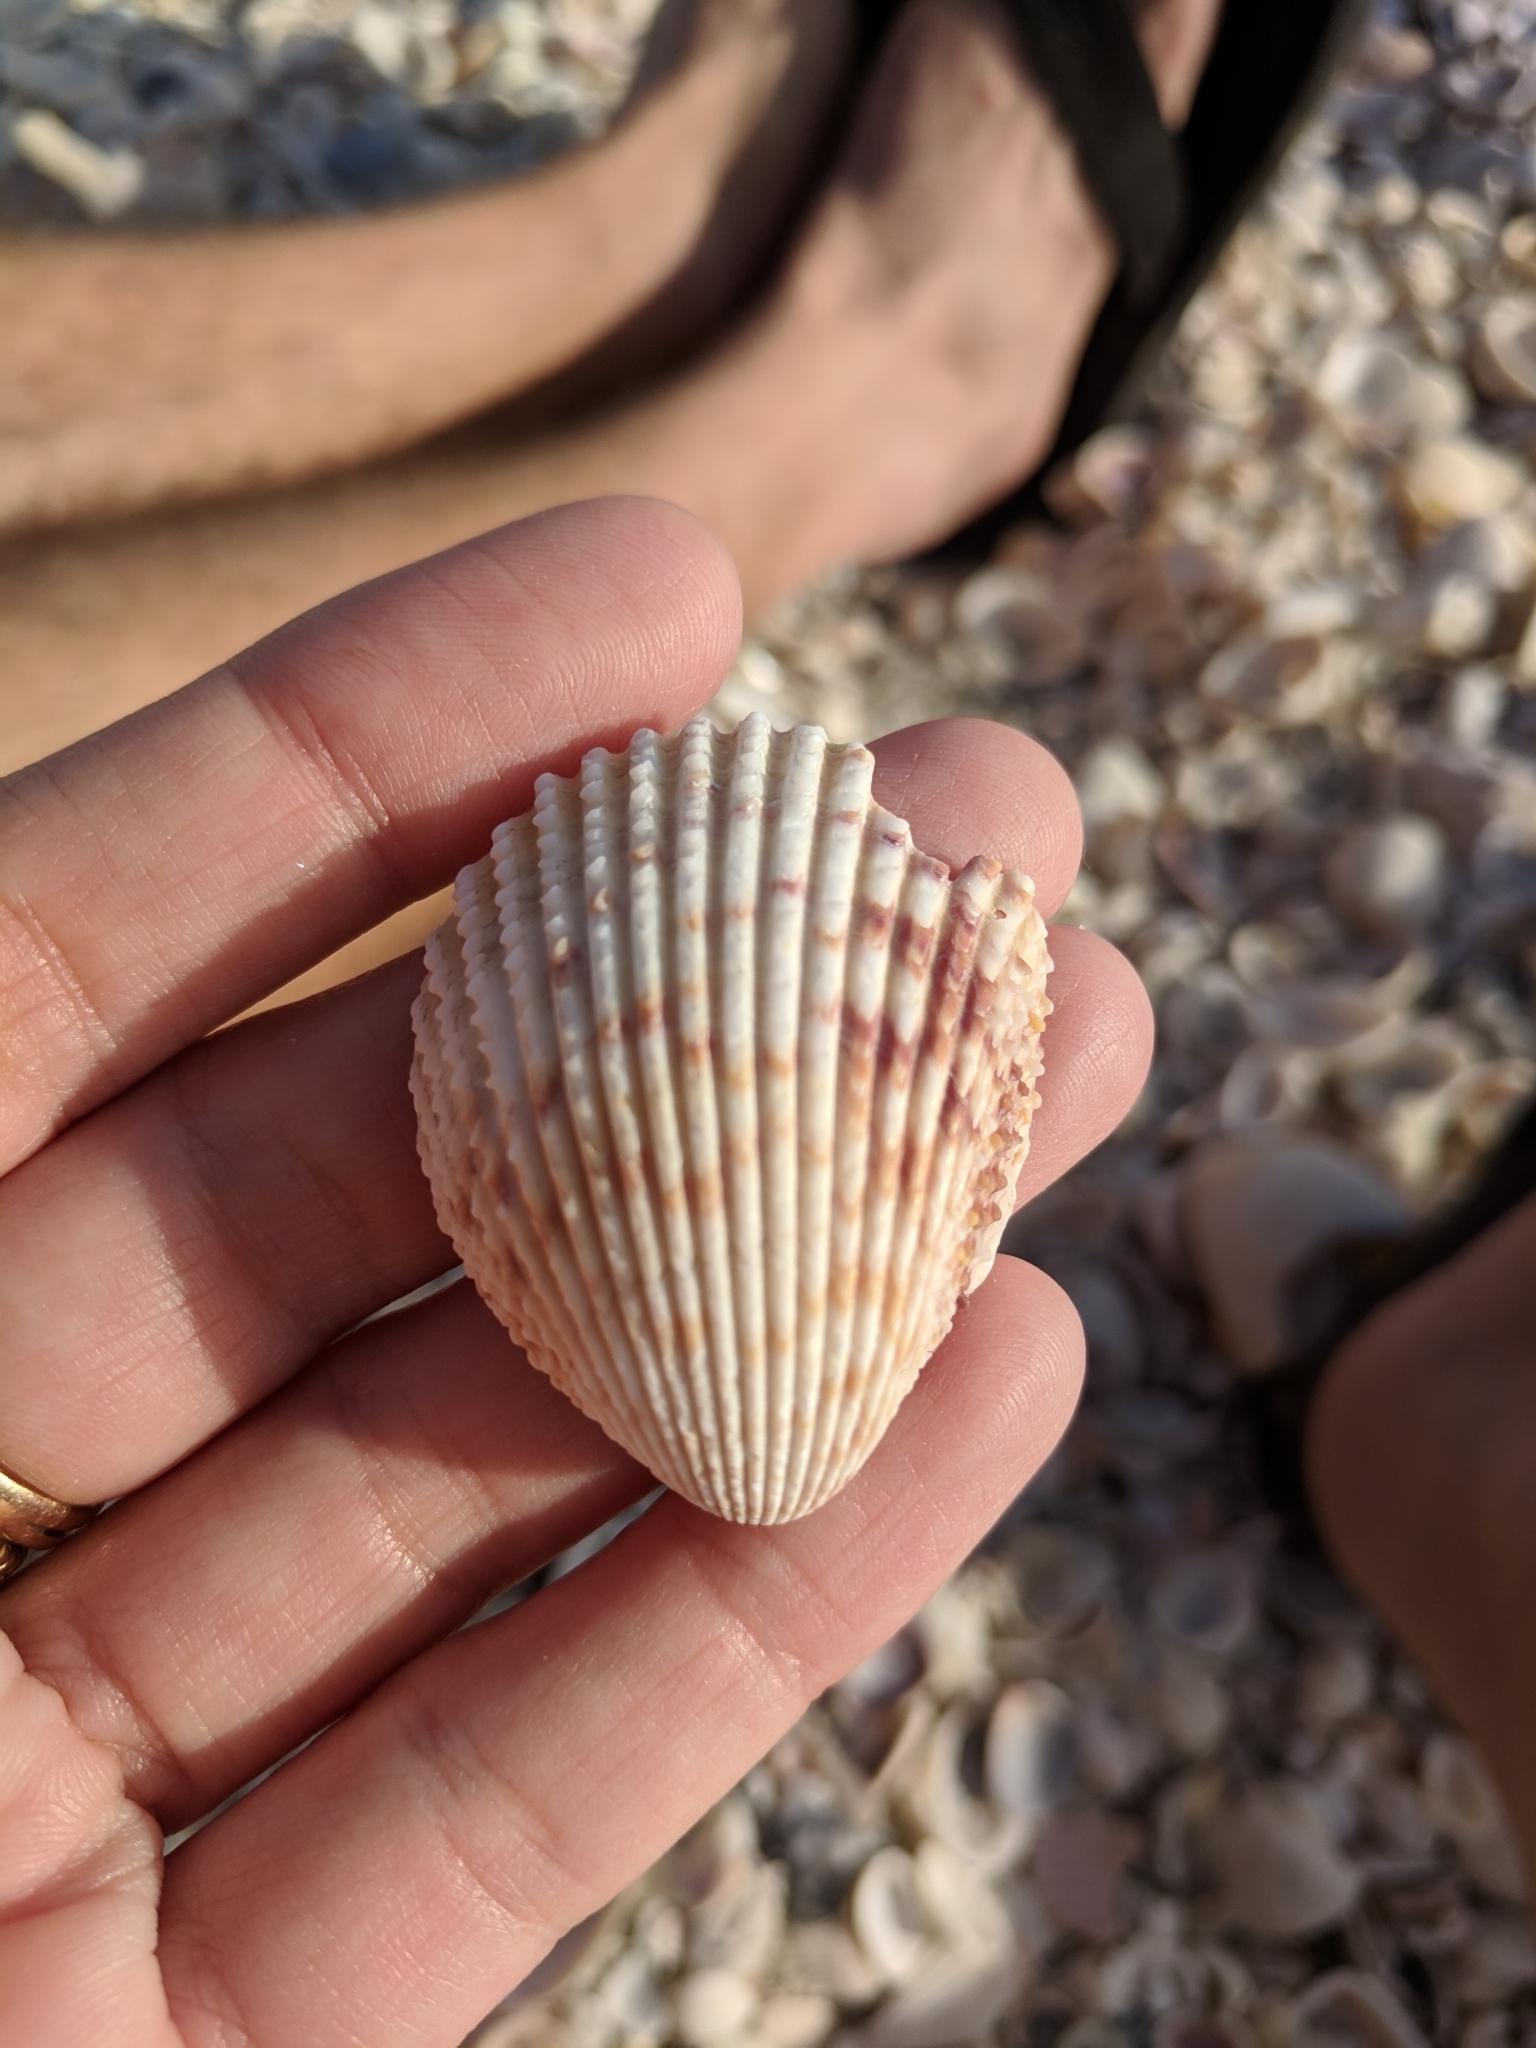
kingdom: Animalia
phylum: Mollusca
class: Bivalvia
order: Cardiida
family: Cardiidae
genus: Trachycardium
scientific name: Trachycardium egmontianum
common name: Florida pricklycockle
